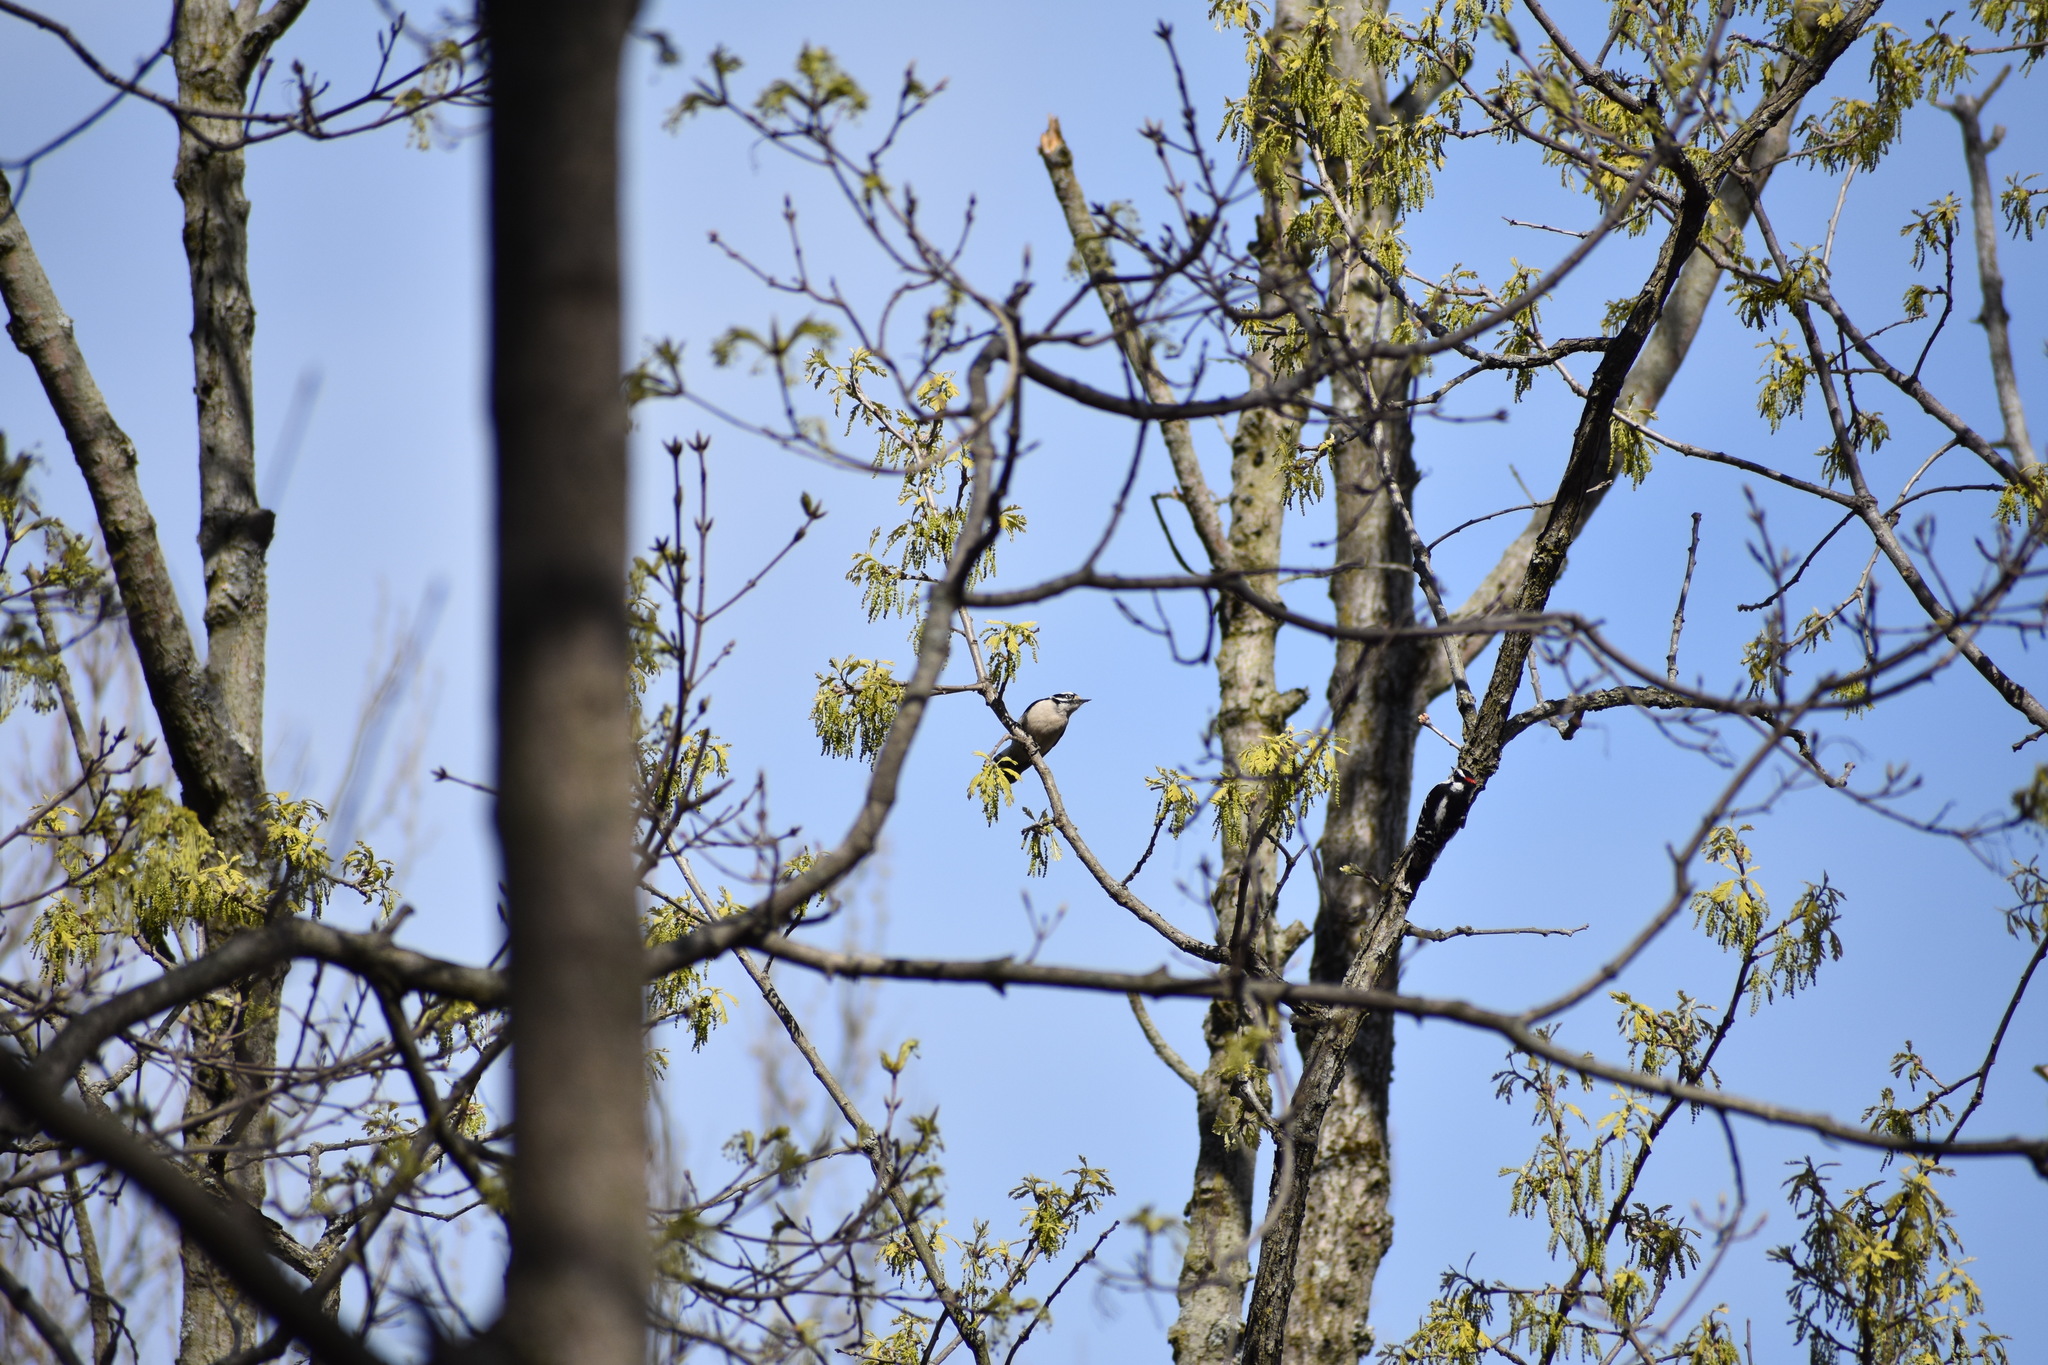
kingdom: Animalia
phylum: Chordata
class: Aves
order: Piciformes
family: Picidae
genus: Dryobates
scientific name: Dryobates pubescens
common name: Downy woodpecker
